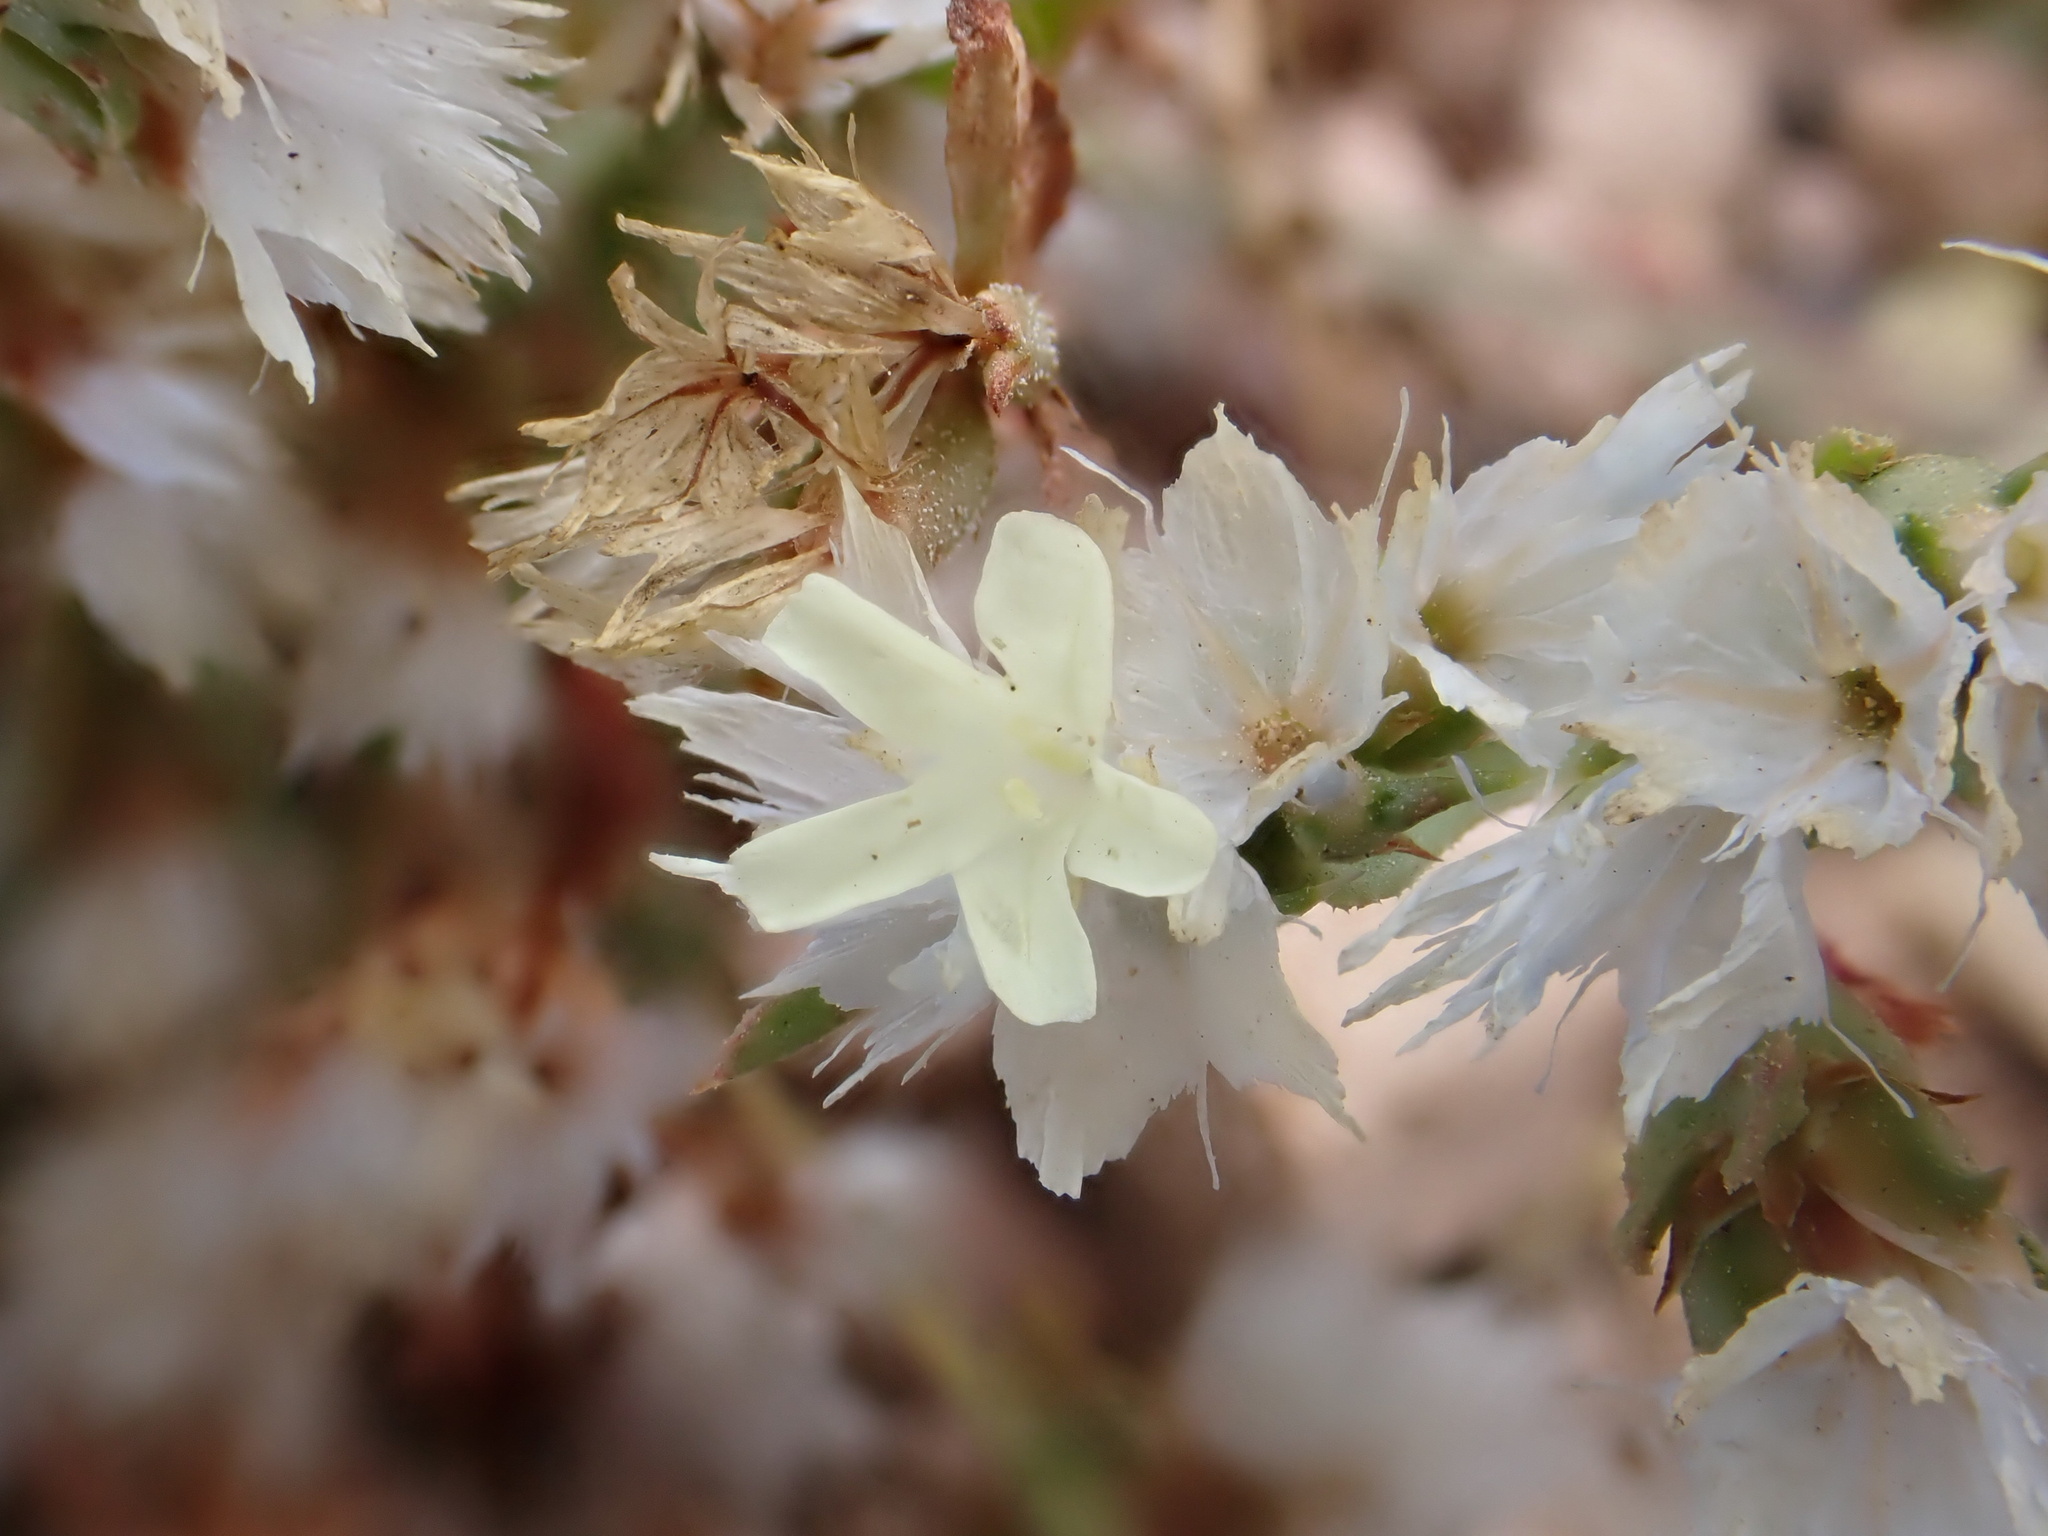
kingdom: Plantae
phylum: Tracheophyta
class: Magnoliopsida
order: Caryophyllales
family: Plumbaginaceae
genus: Limonium
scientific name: Limonium lobatum
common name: Winged sea-lavender
